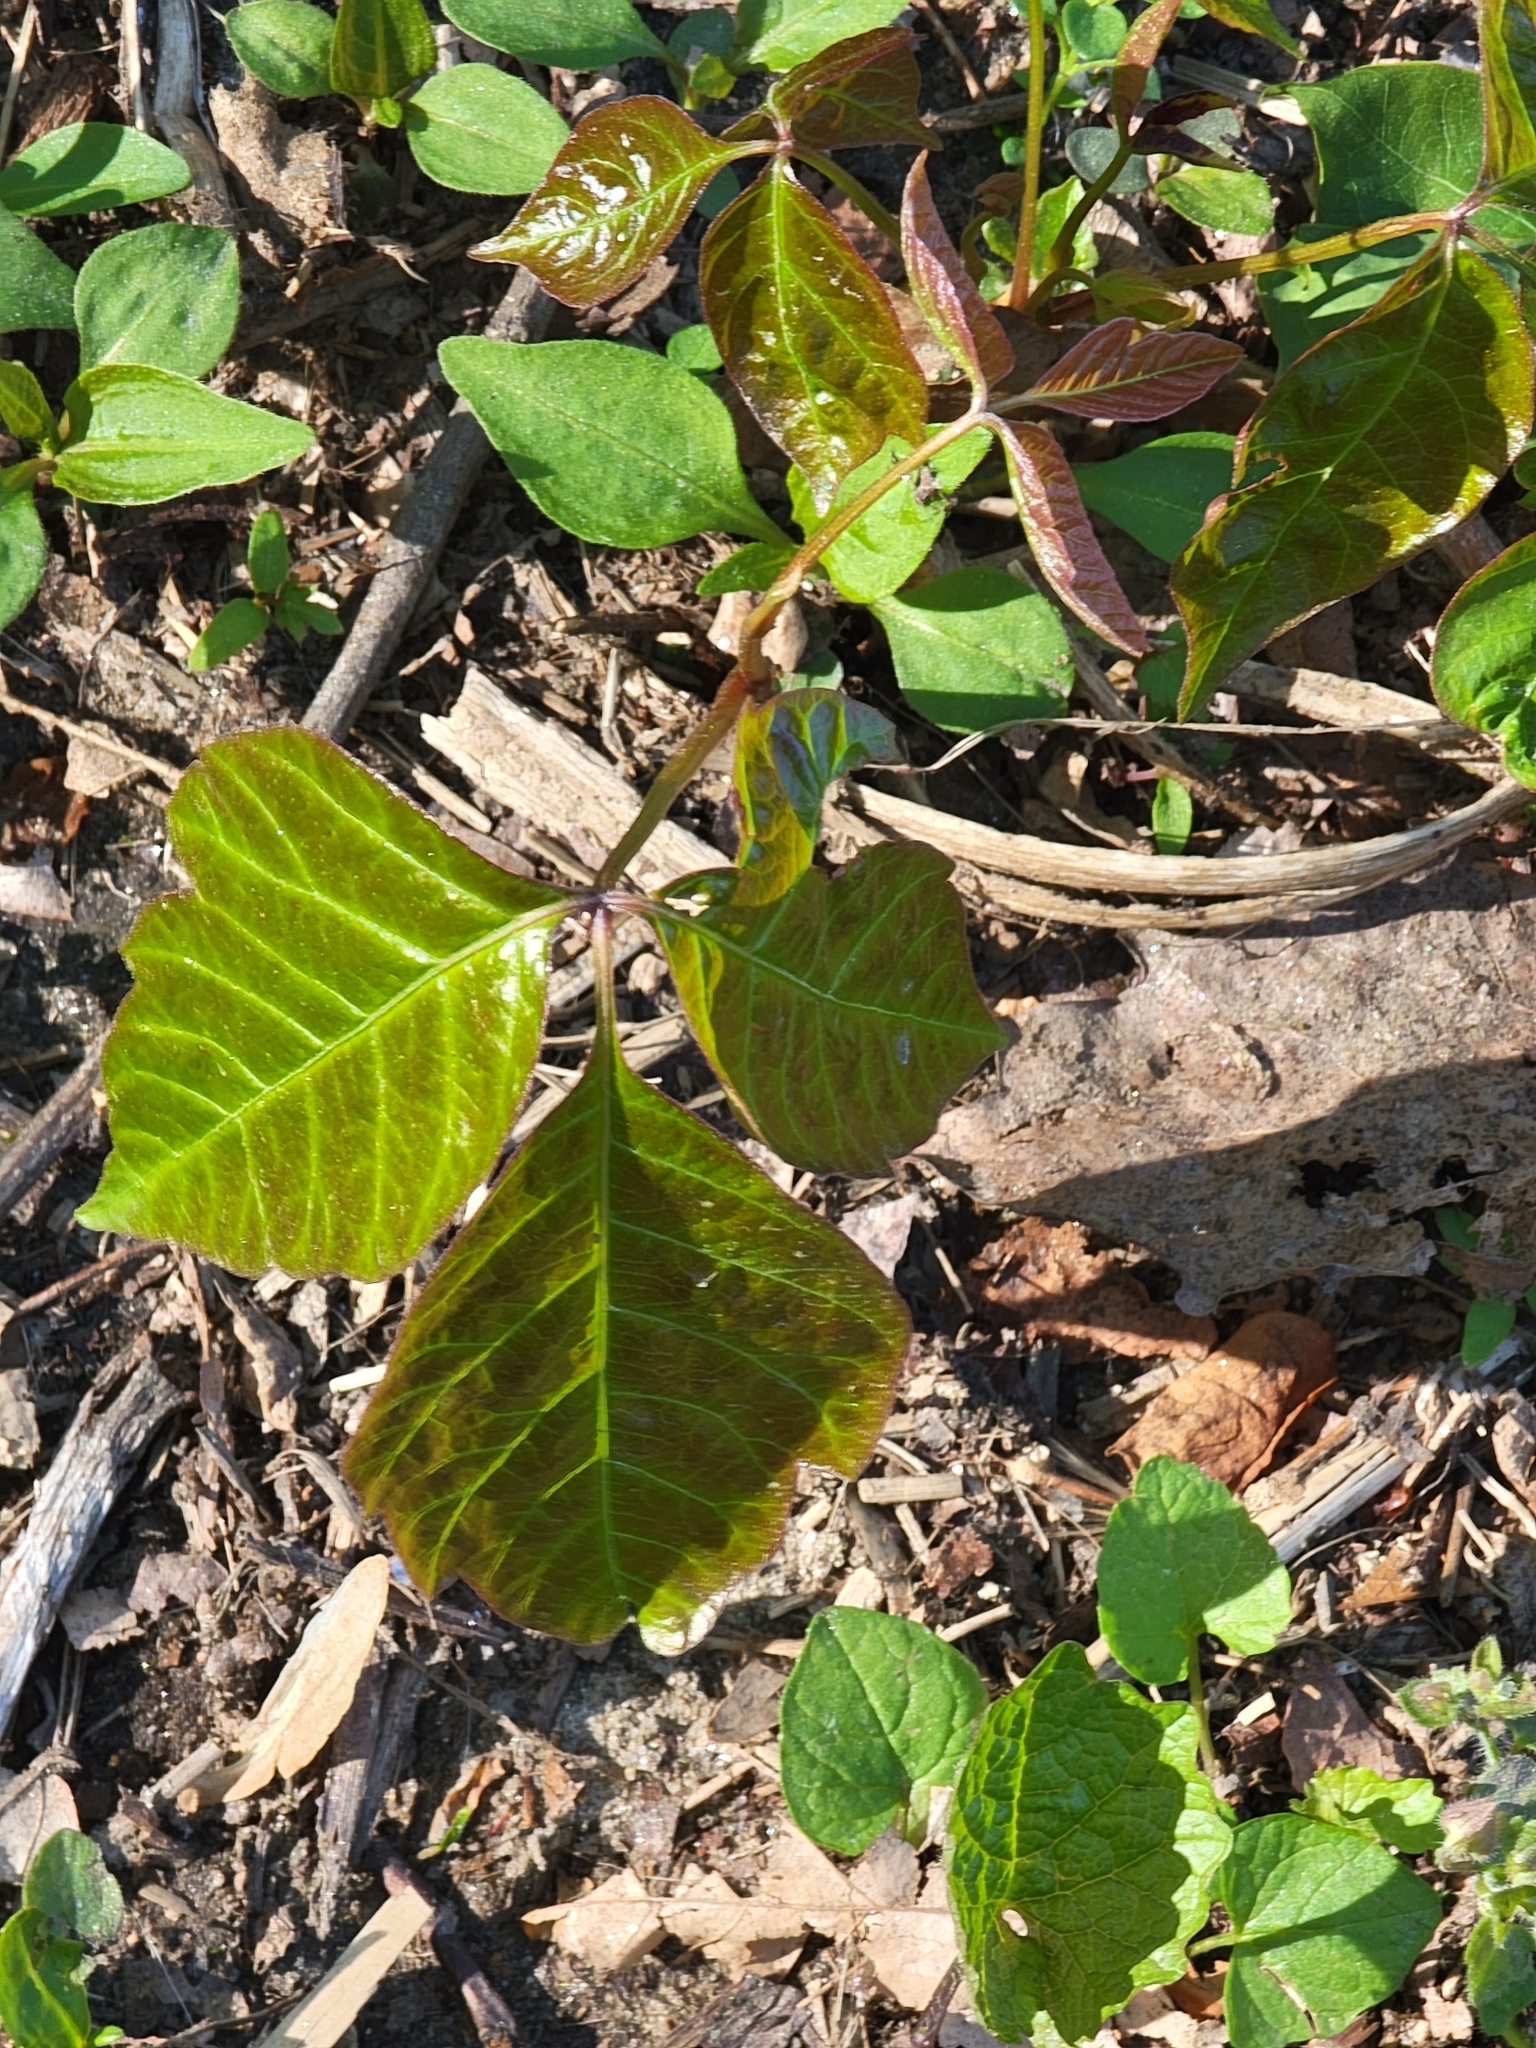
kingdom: Plantae
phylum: Tracheophyta
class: Magnoliopsida
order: Sapindales
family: Anacardiaceae
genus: Toxicodendron
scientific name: Toxicodendron radicans
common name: Poison ivy
